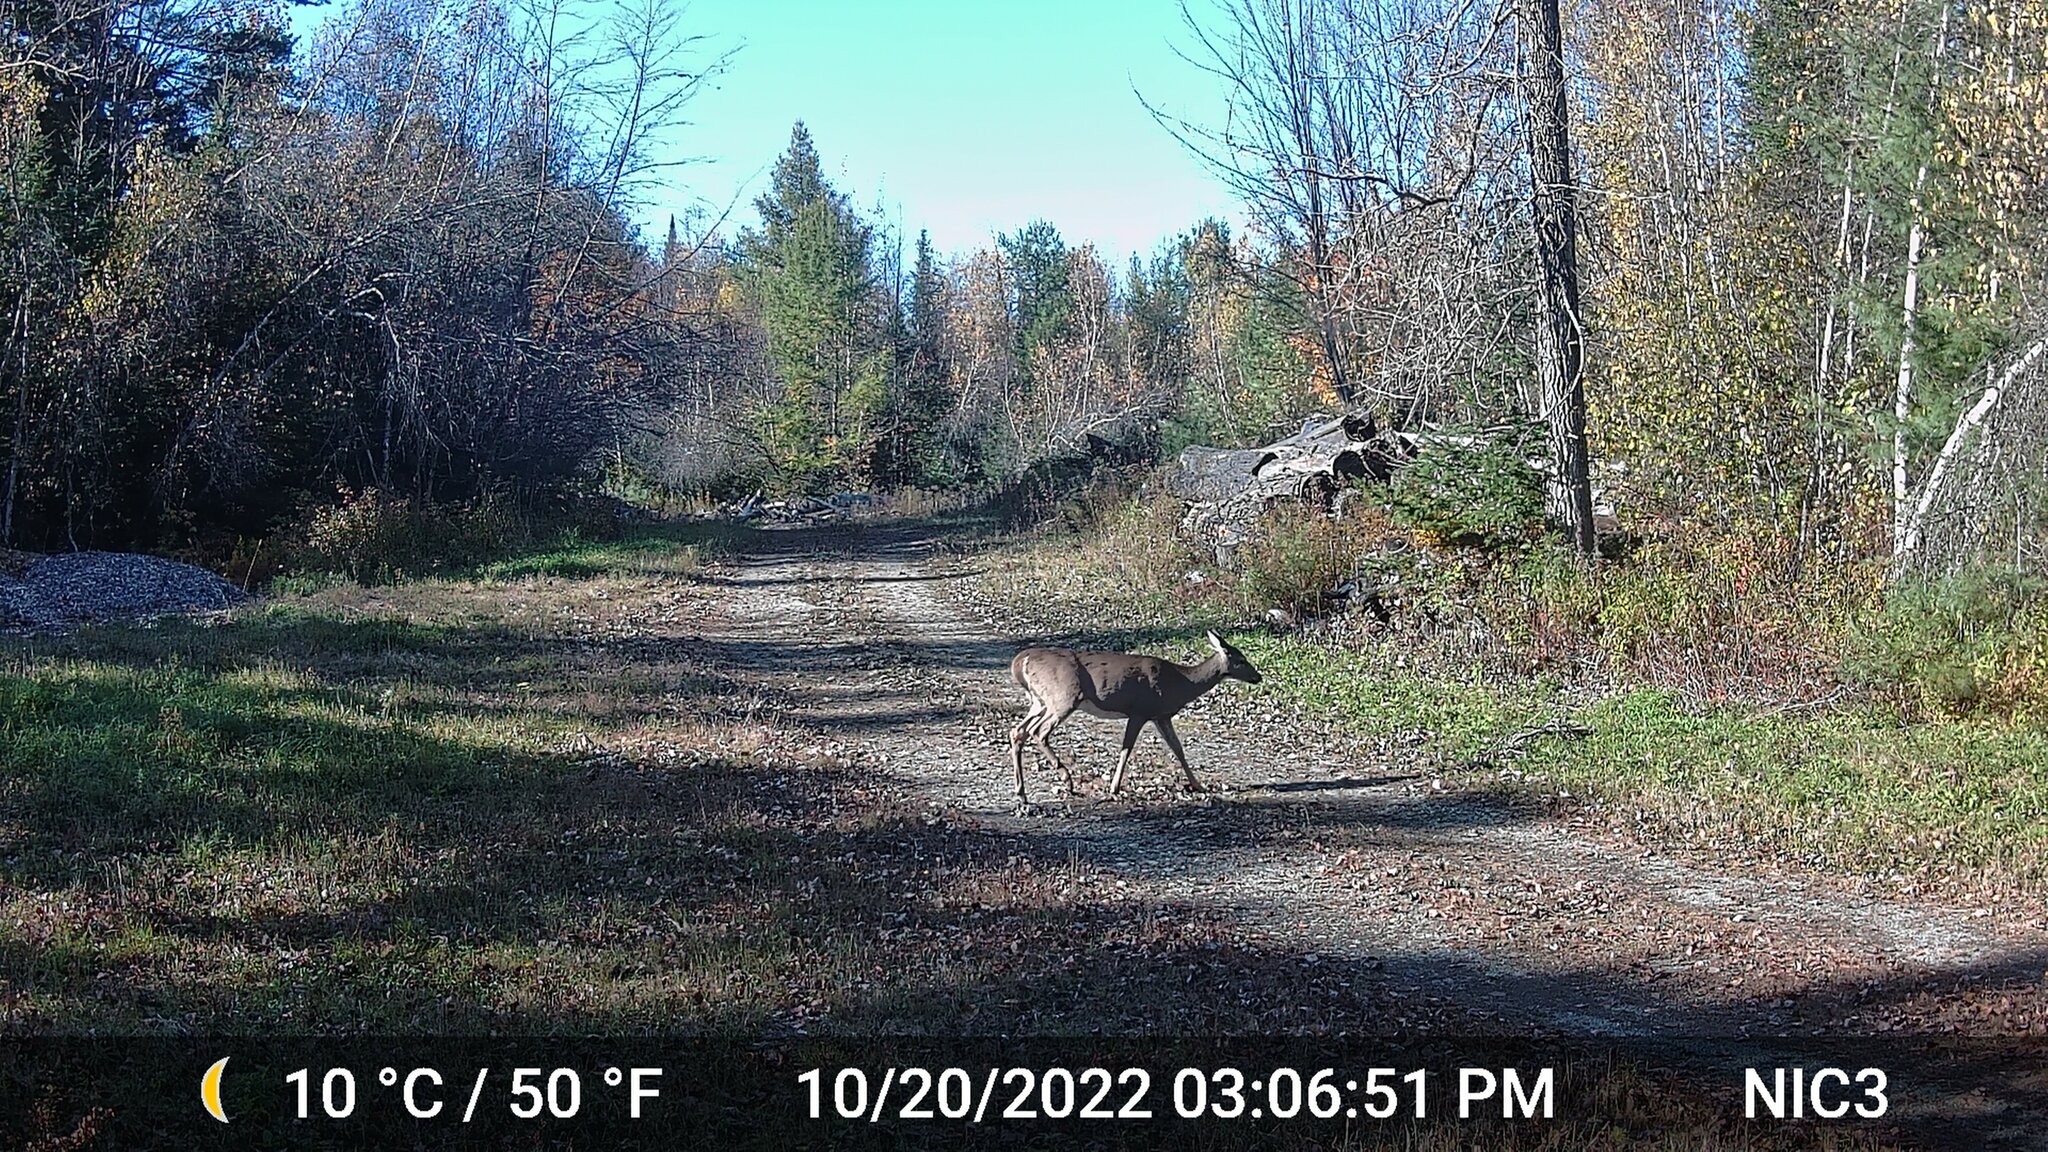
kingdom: Animalia
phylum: Chordata
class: Mammalia
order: Artiodactyla
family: Cervidae
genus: Odocoileus
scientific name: Odocoileus virginianus
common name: White-tailed deer
